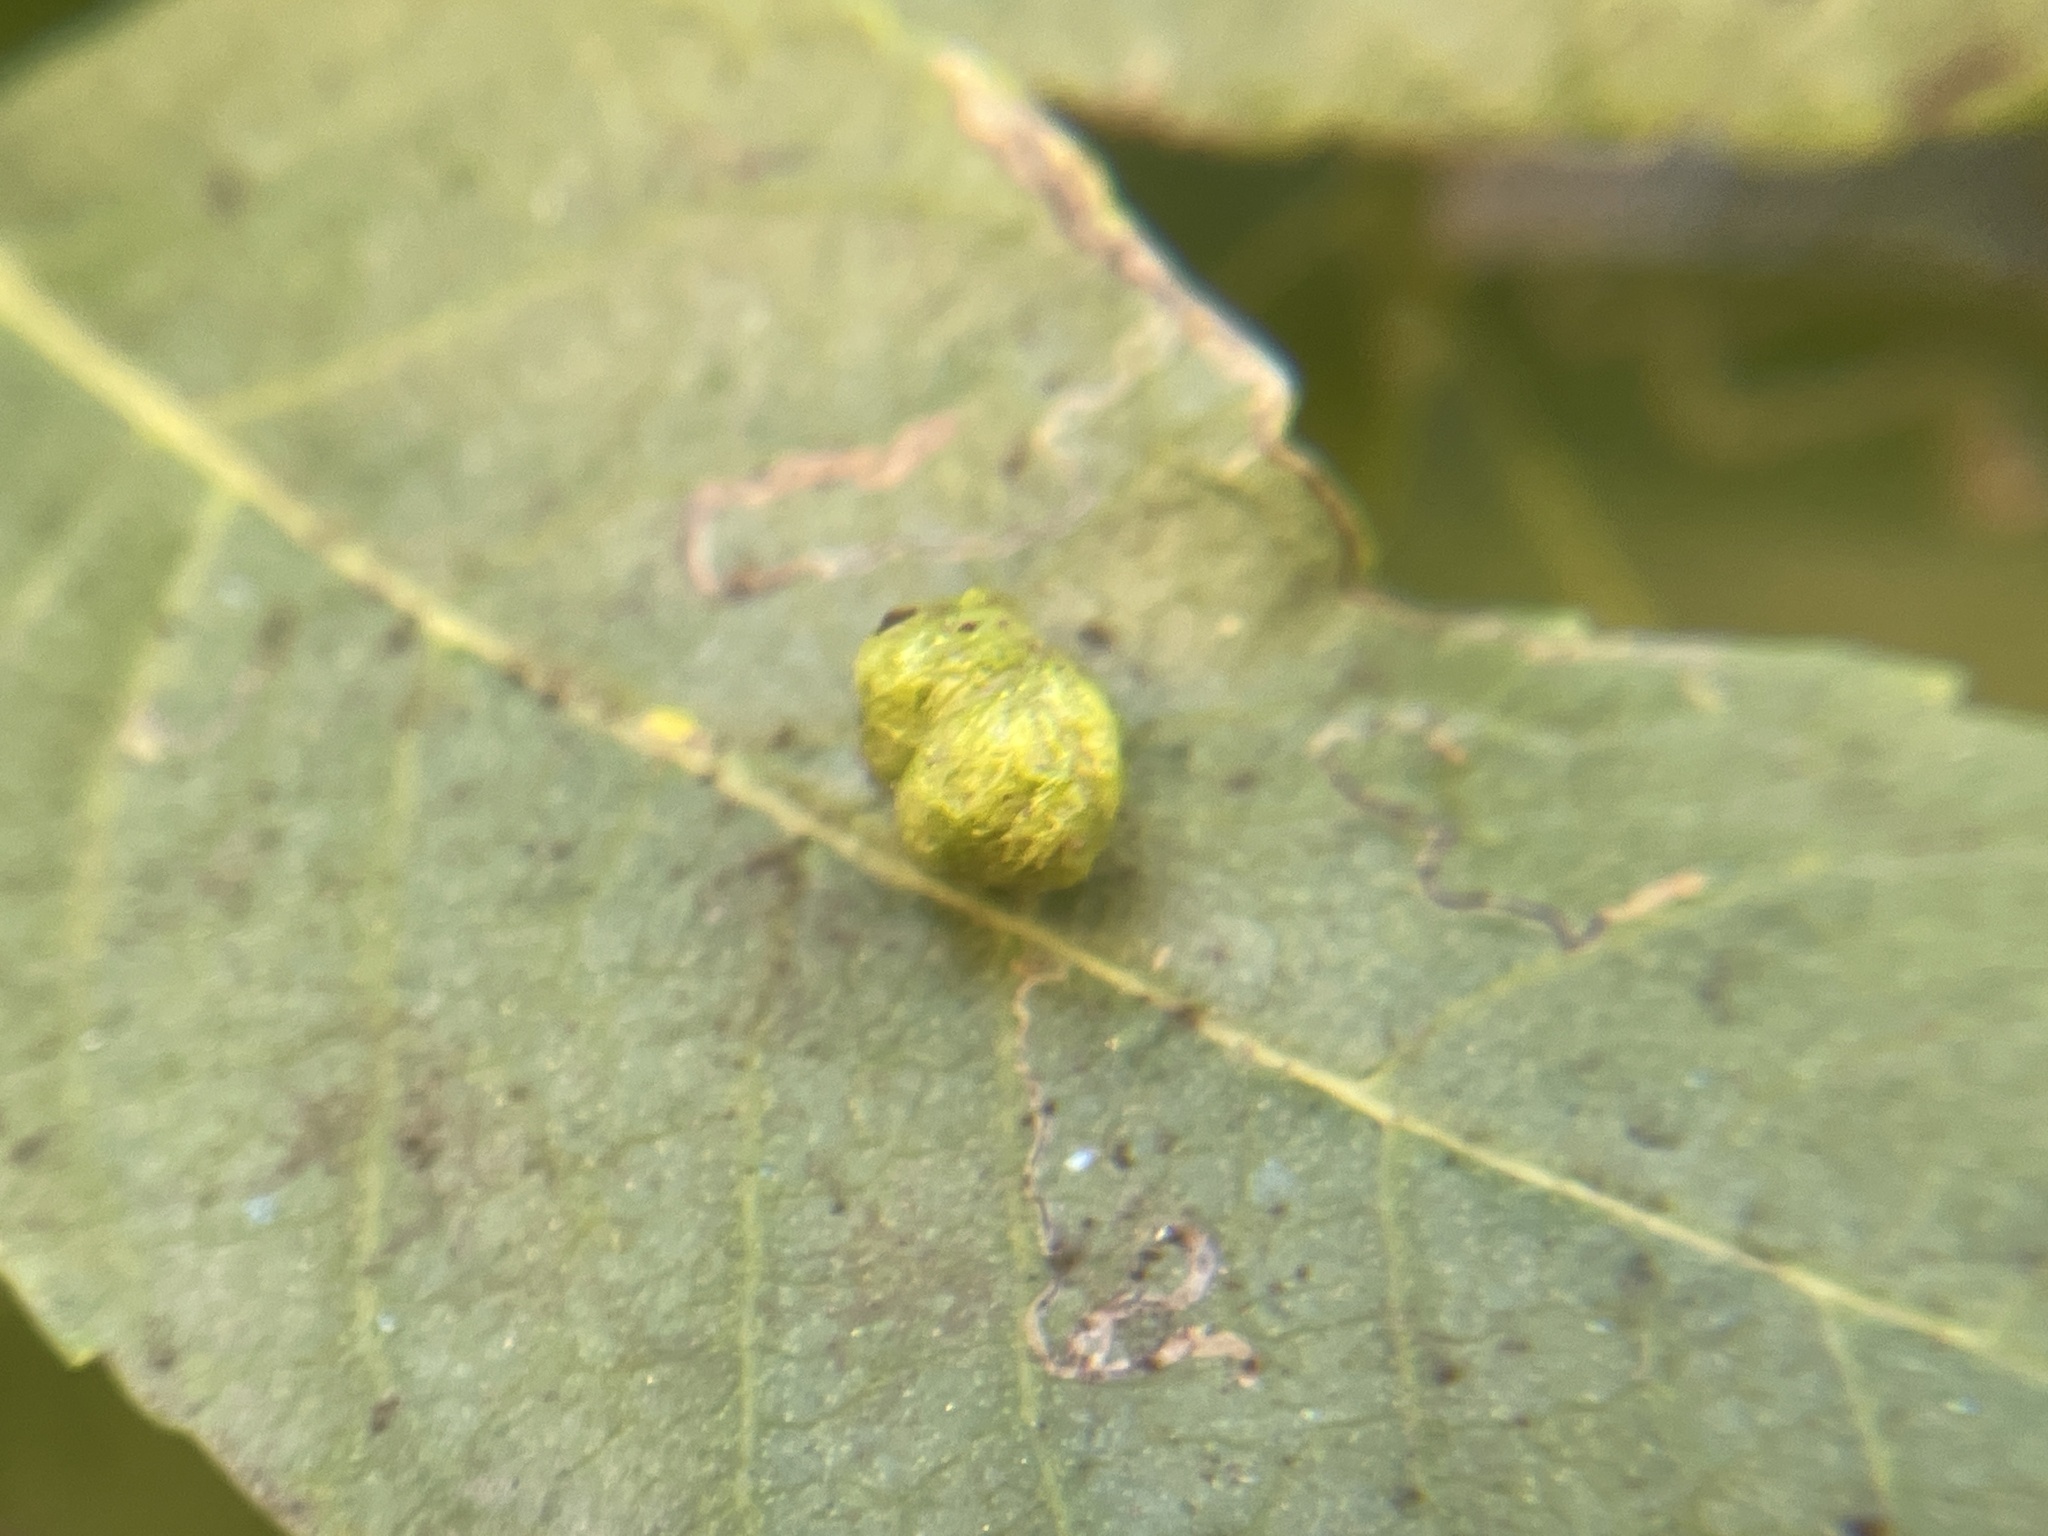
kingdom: Animalia
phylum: Arthropoda
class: Arachnida
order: Trombidiformes
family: Eriophyidae
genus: Aceria
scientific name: Aceria brachytarsus
